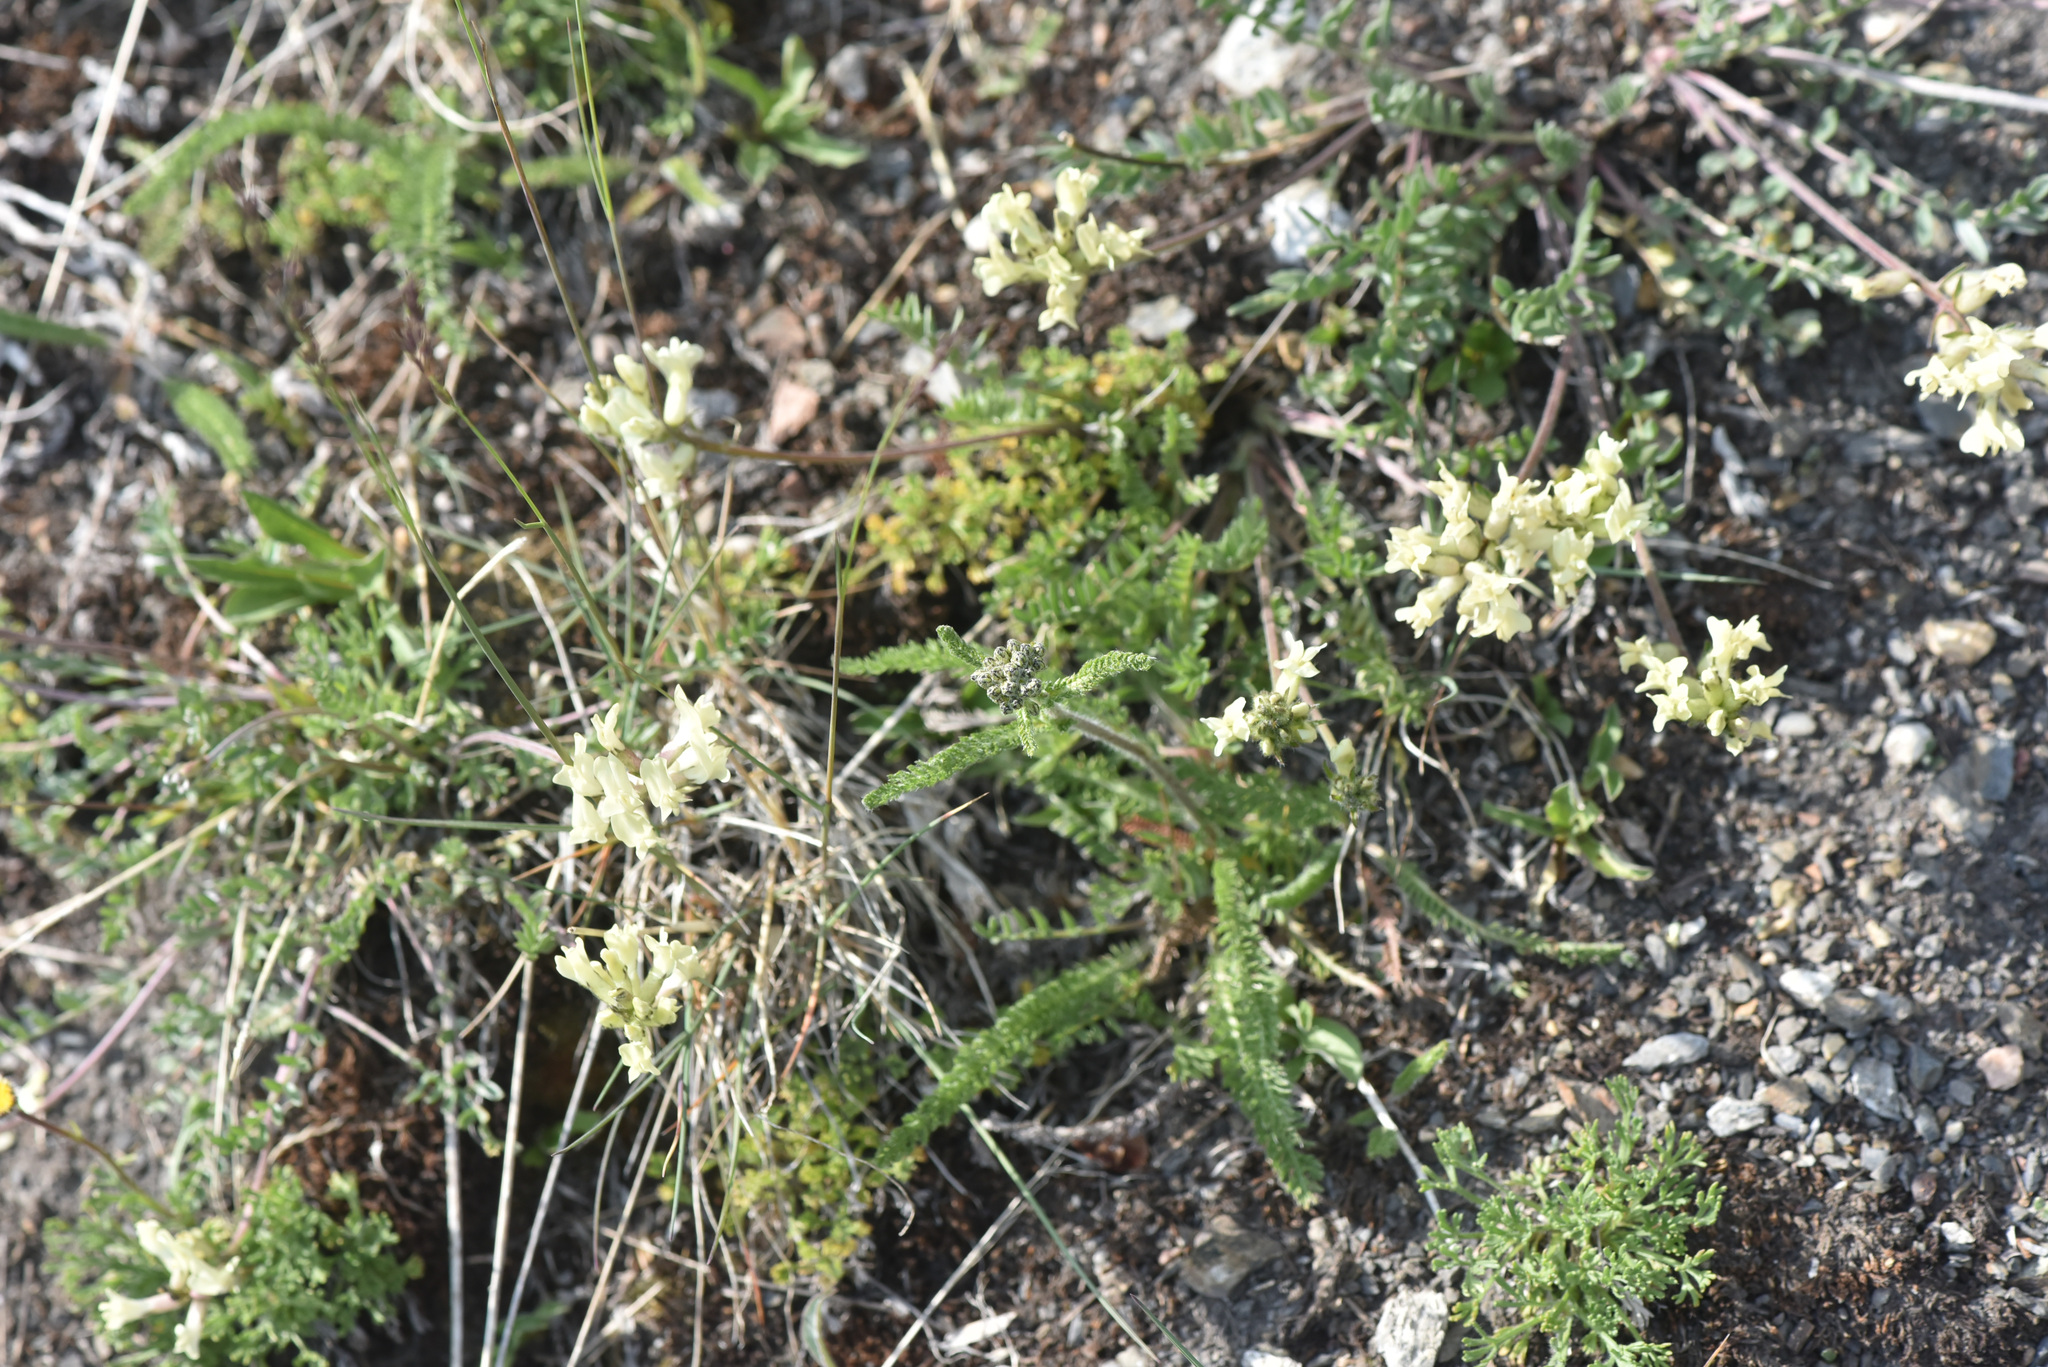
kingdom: Plantae
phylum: Tracheophyta
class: Magnoliopsida
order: Asterales
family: Asteraceae
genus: Achillea
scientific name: Achillea millefolium
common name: Yarrow
